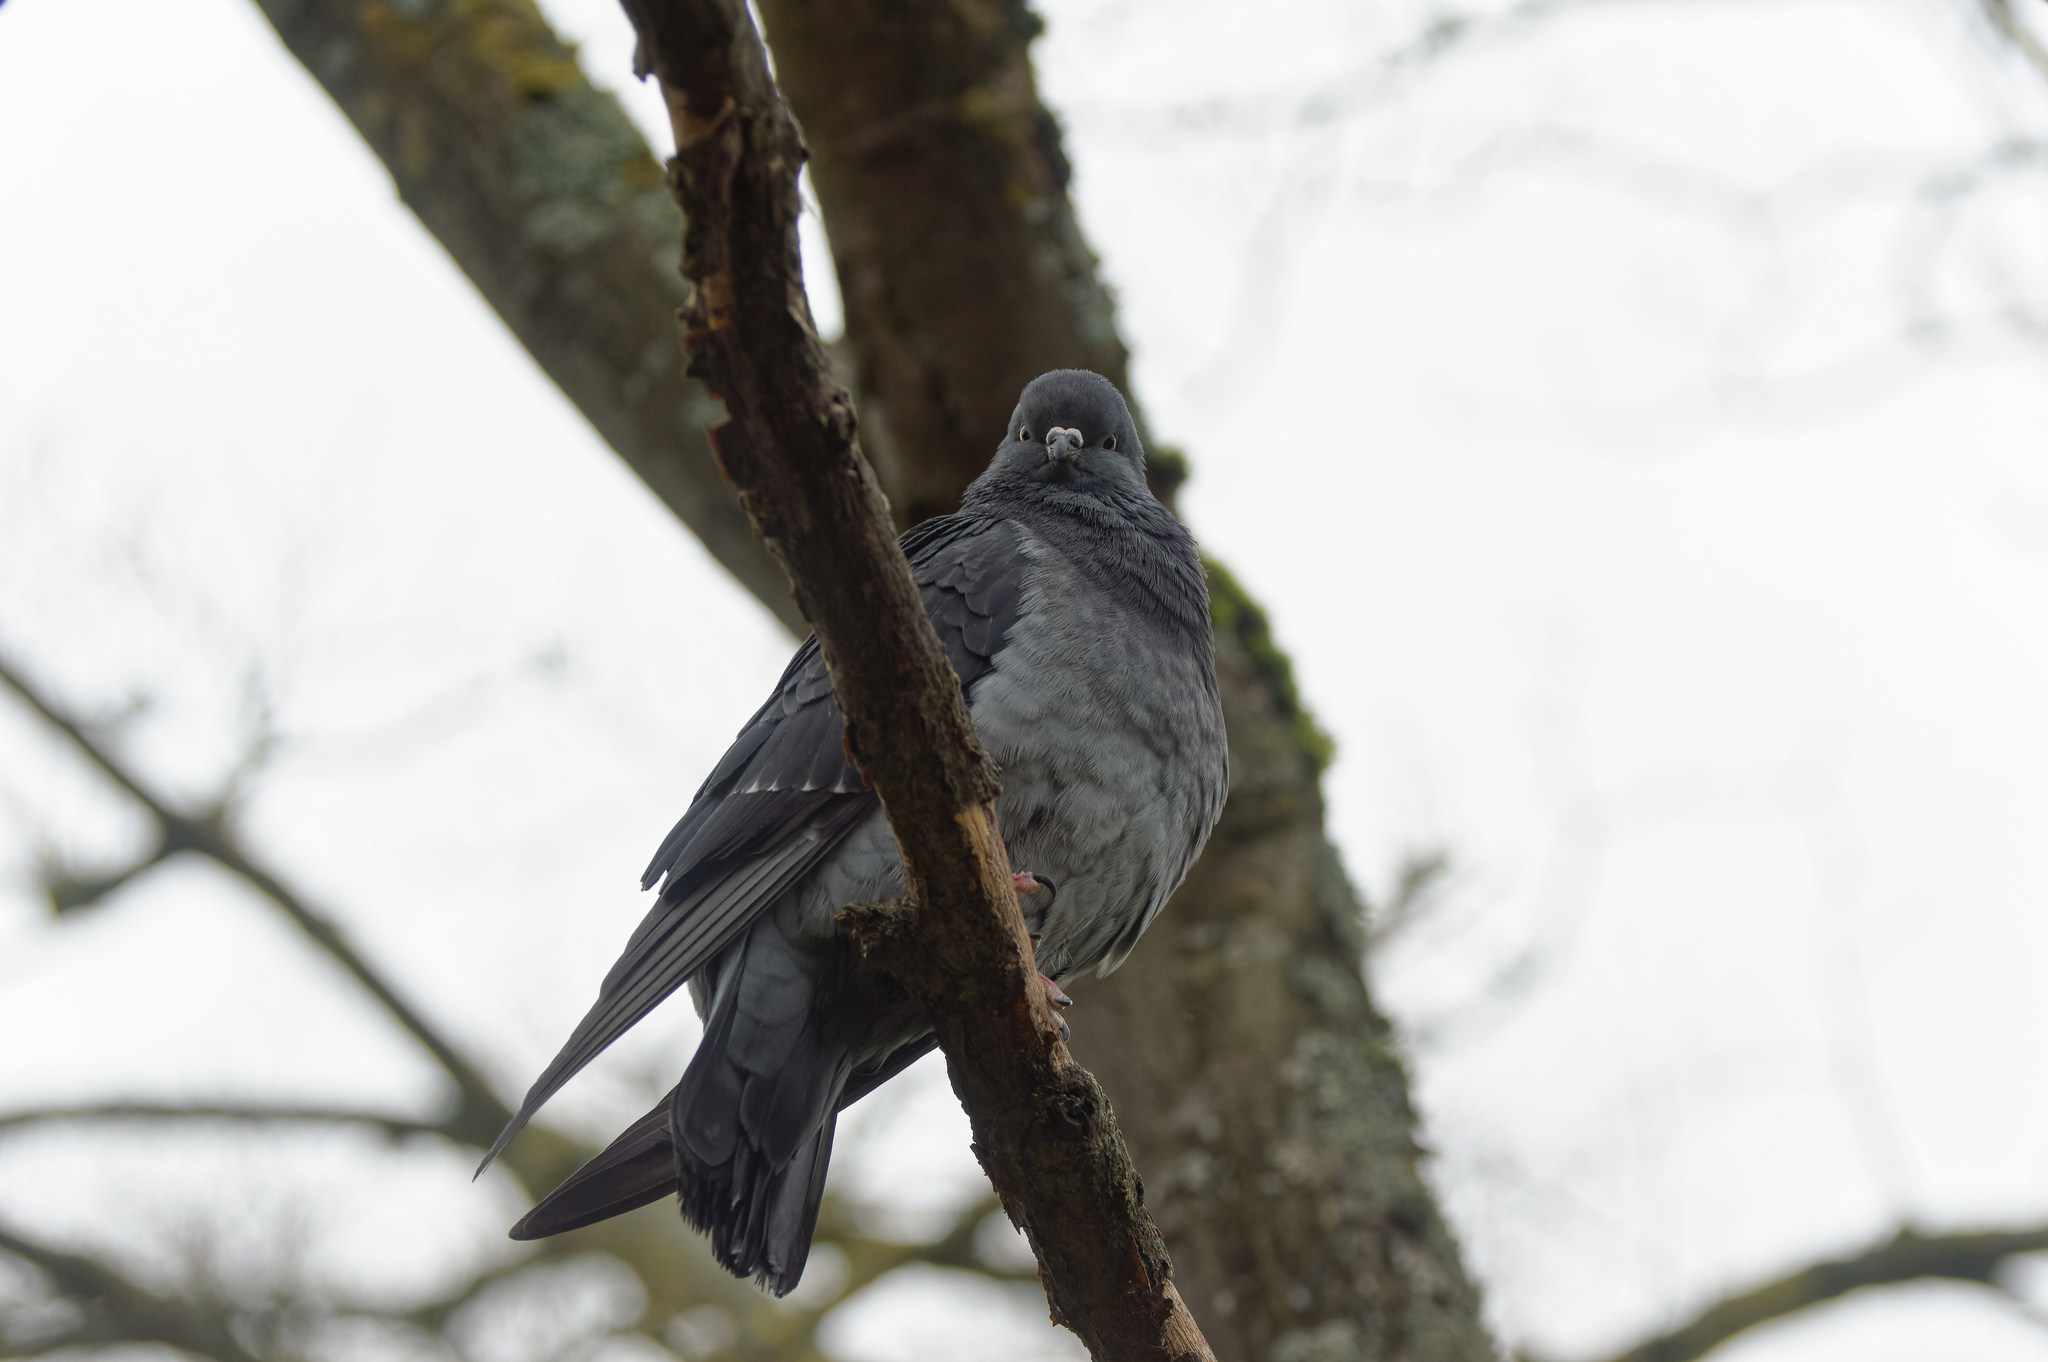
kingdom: Animalia
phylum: Chordata
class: Aves
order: Columbiformes
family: Columbidae
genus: Columba
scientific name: Columba livia
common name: Rock pigeon
